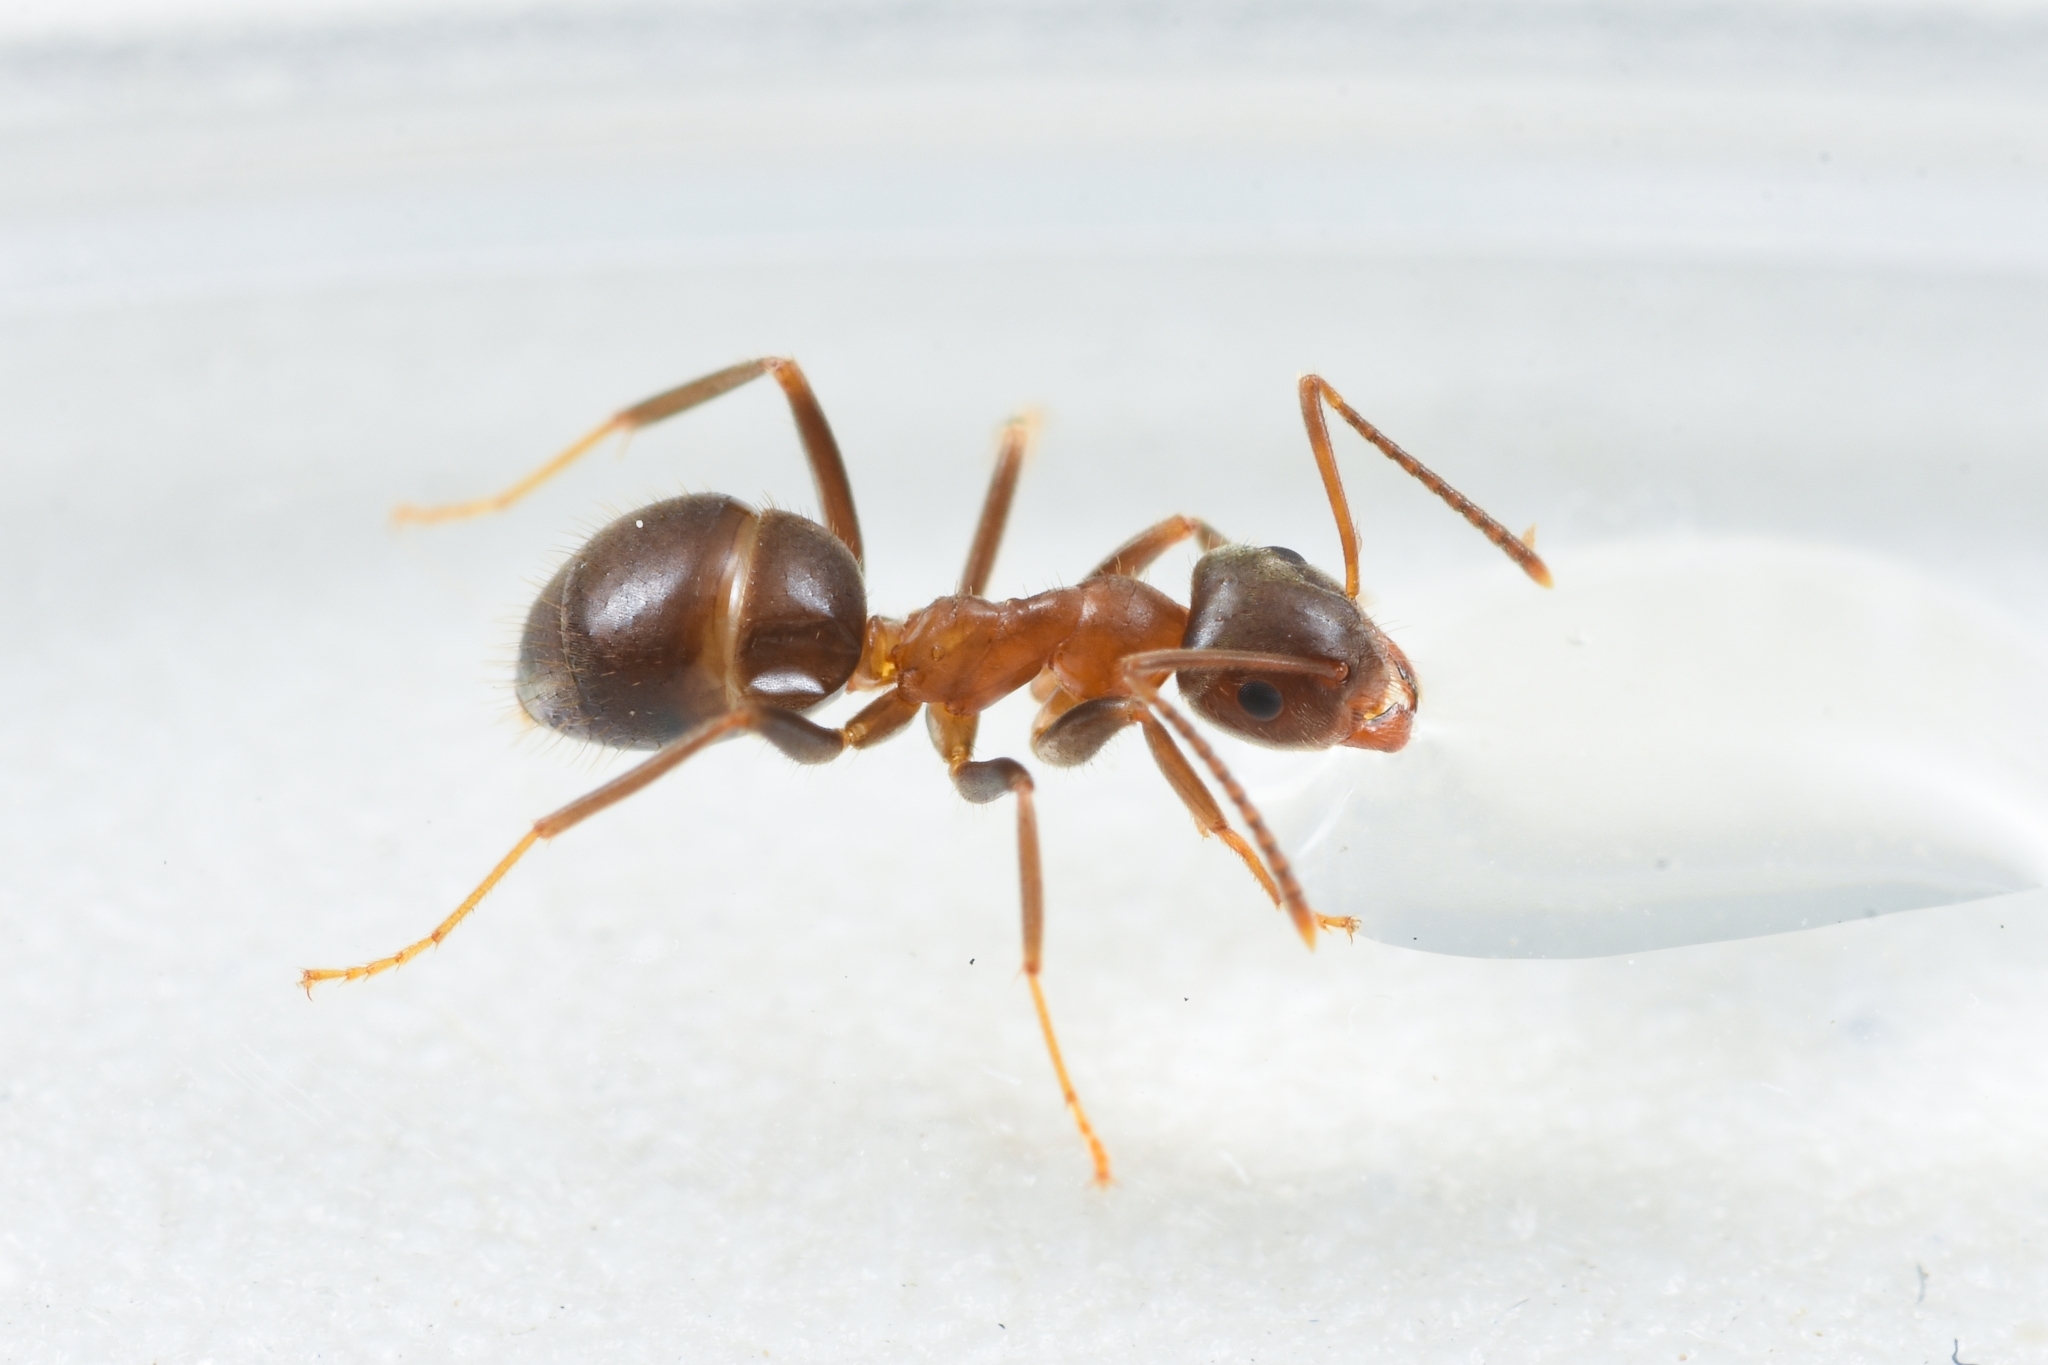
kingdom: Animalia
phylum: Arthropoda
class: Insecta
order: Hymenoptera
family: Formicidae
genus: Lasius
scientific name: Lasius productus
